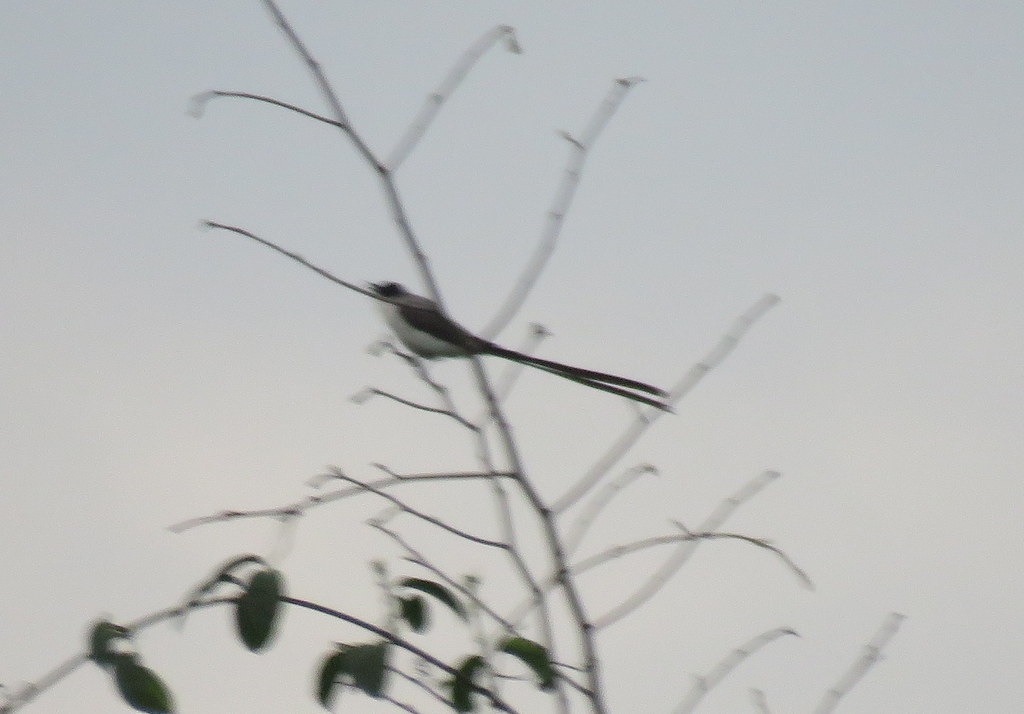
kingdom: Animalia
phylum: Chordata
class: Aves
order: Passeriformes
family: Tyrannidae
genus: Tyrannus
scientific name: Tyrannus savana
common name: Fork-tailed flycatcher
